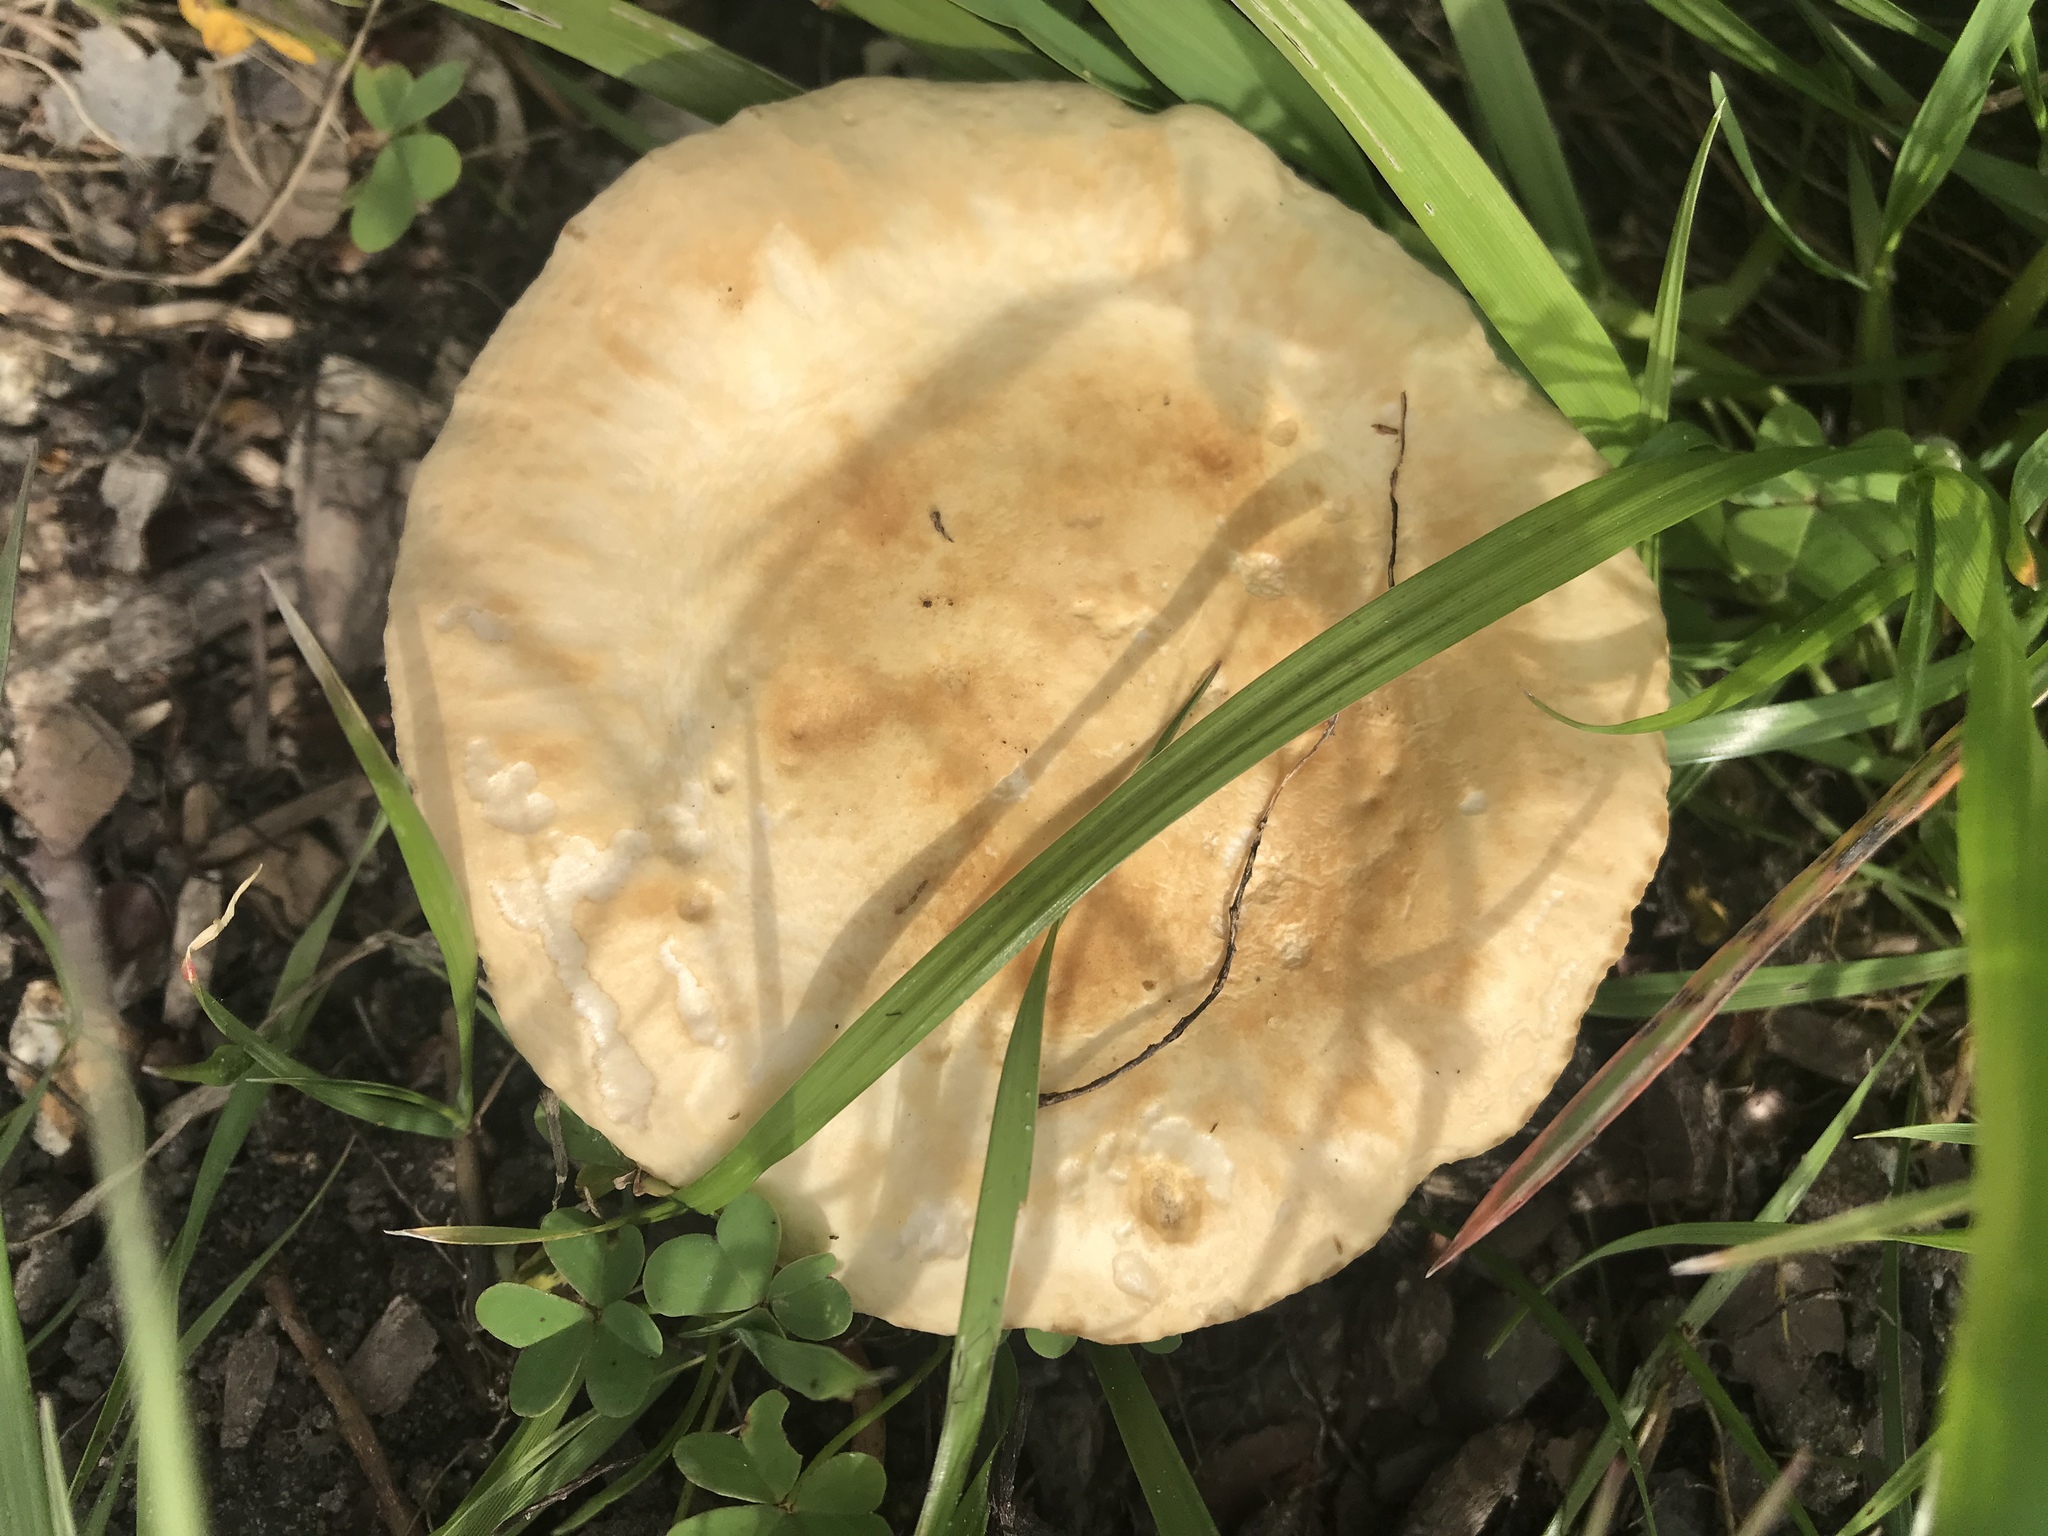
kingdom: Fungi
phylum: Basidiomycota
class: Agaricomycetes
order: Agaricales
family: Strophariaceae
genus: Agrocybe
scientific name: Agrocybe praecox
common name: Spring fieldcap
